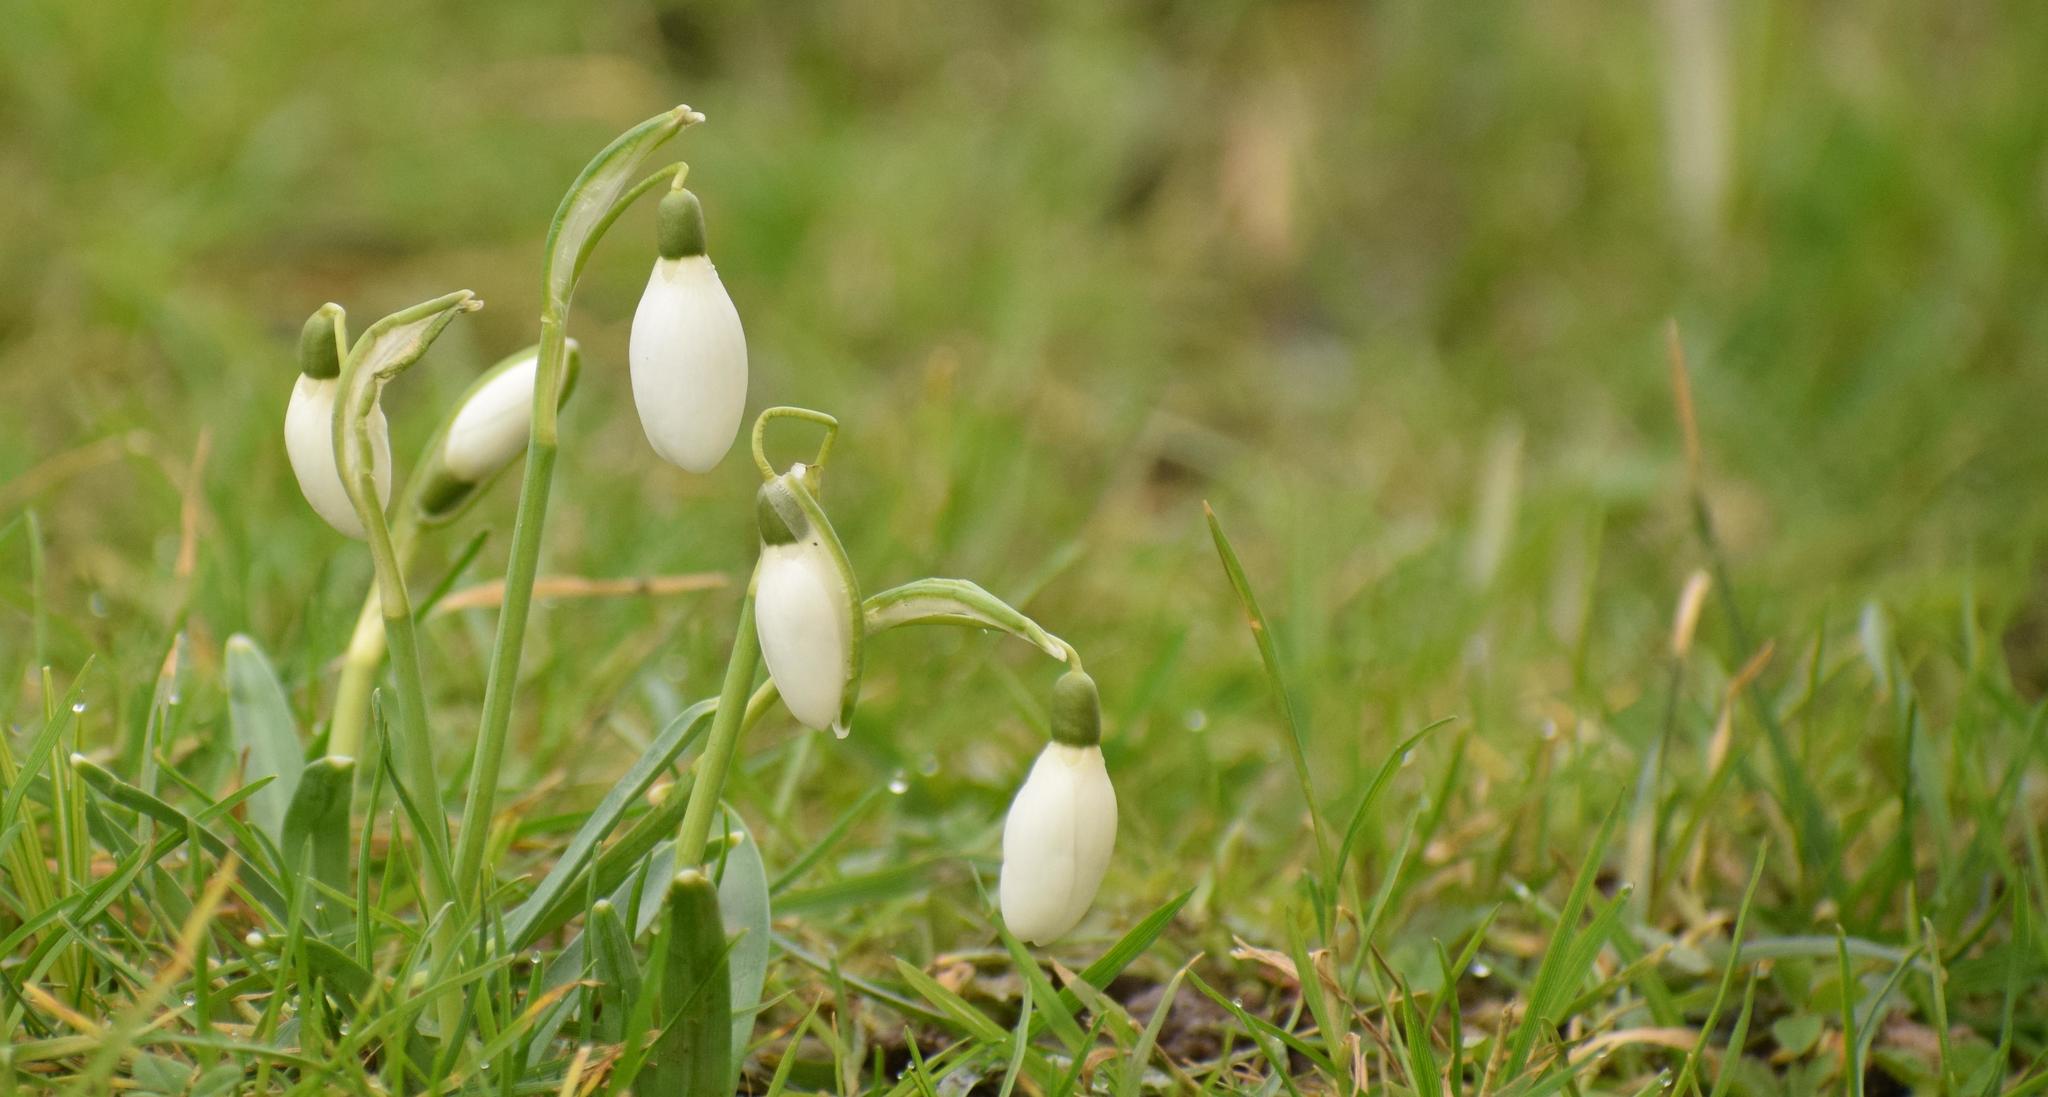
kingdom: Plantae
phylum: Tracheophyta
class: Liliopsida
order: Asparagales
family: Amaryllidaceae
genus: Galanthus
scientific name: Galanthus nivalis
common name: Snowdrop
